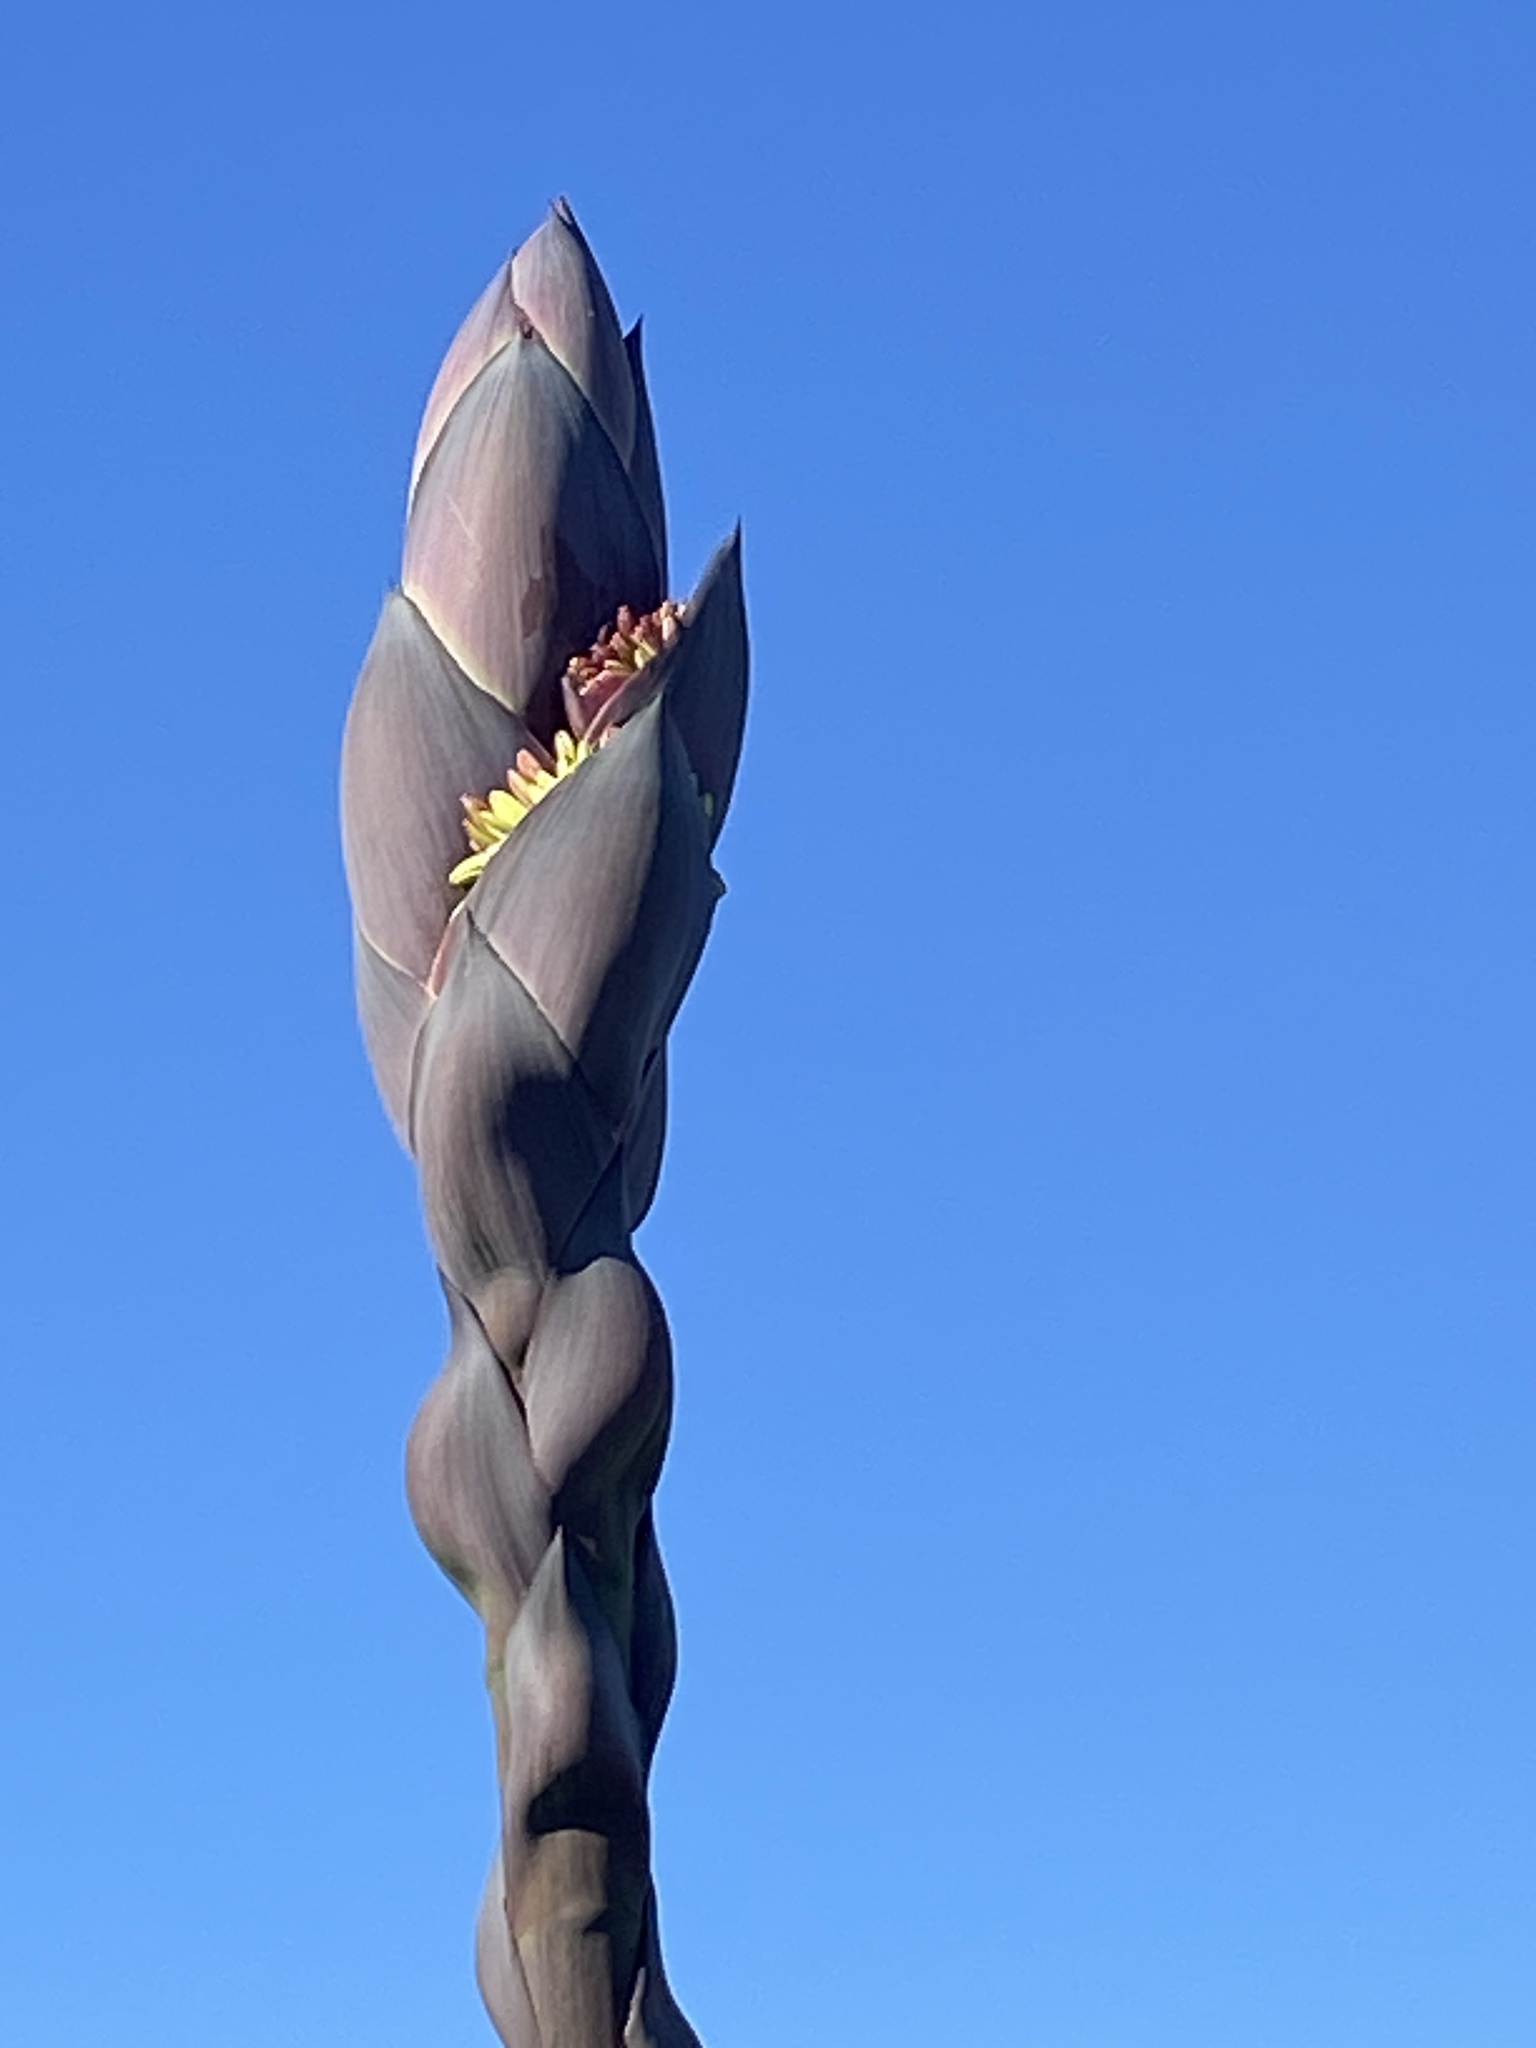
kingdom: Plantae
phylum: Tracheophyta
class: Liliopsida
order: Asparagales
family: Asparagaceae
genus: Agave
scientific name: Agave shawii
